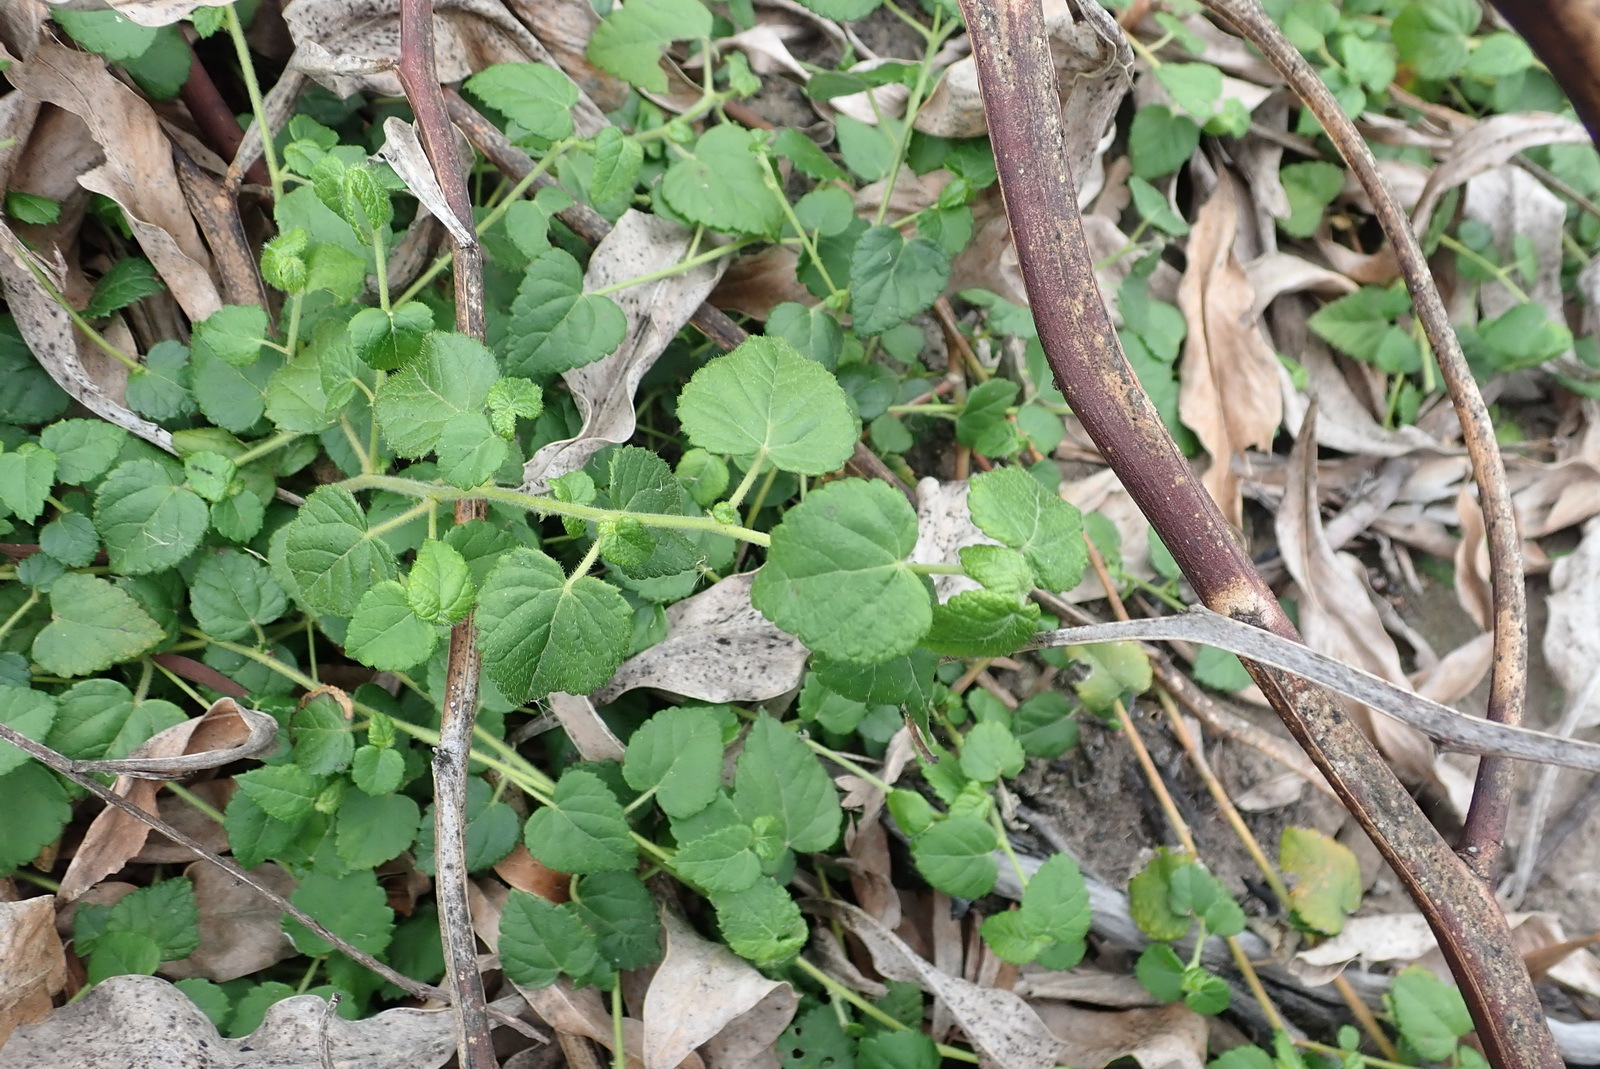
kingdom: Plantae
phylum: Tracheophyta
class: Magnoliopsida
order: Malpighiales
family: Euphorbiaceae
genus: Bernardia
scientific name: Bernardia corensis
